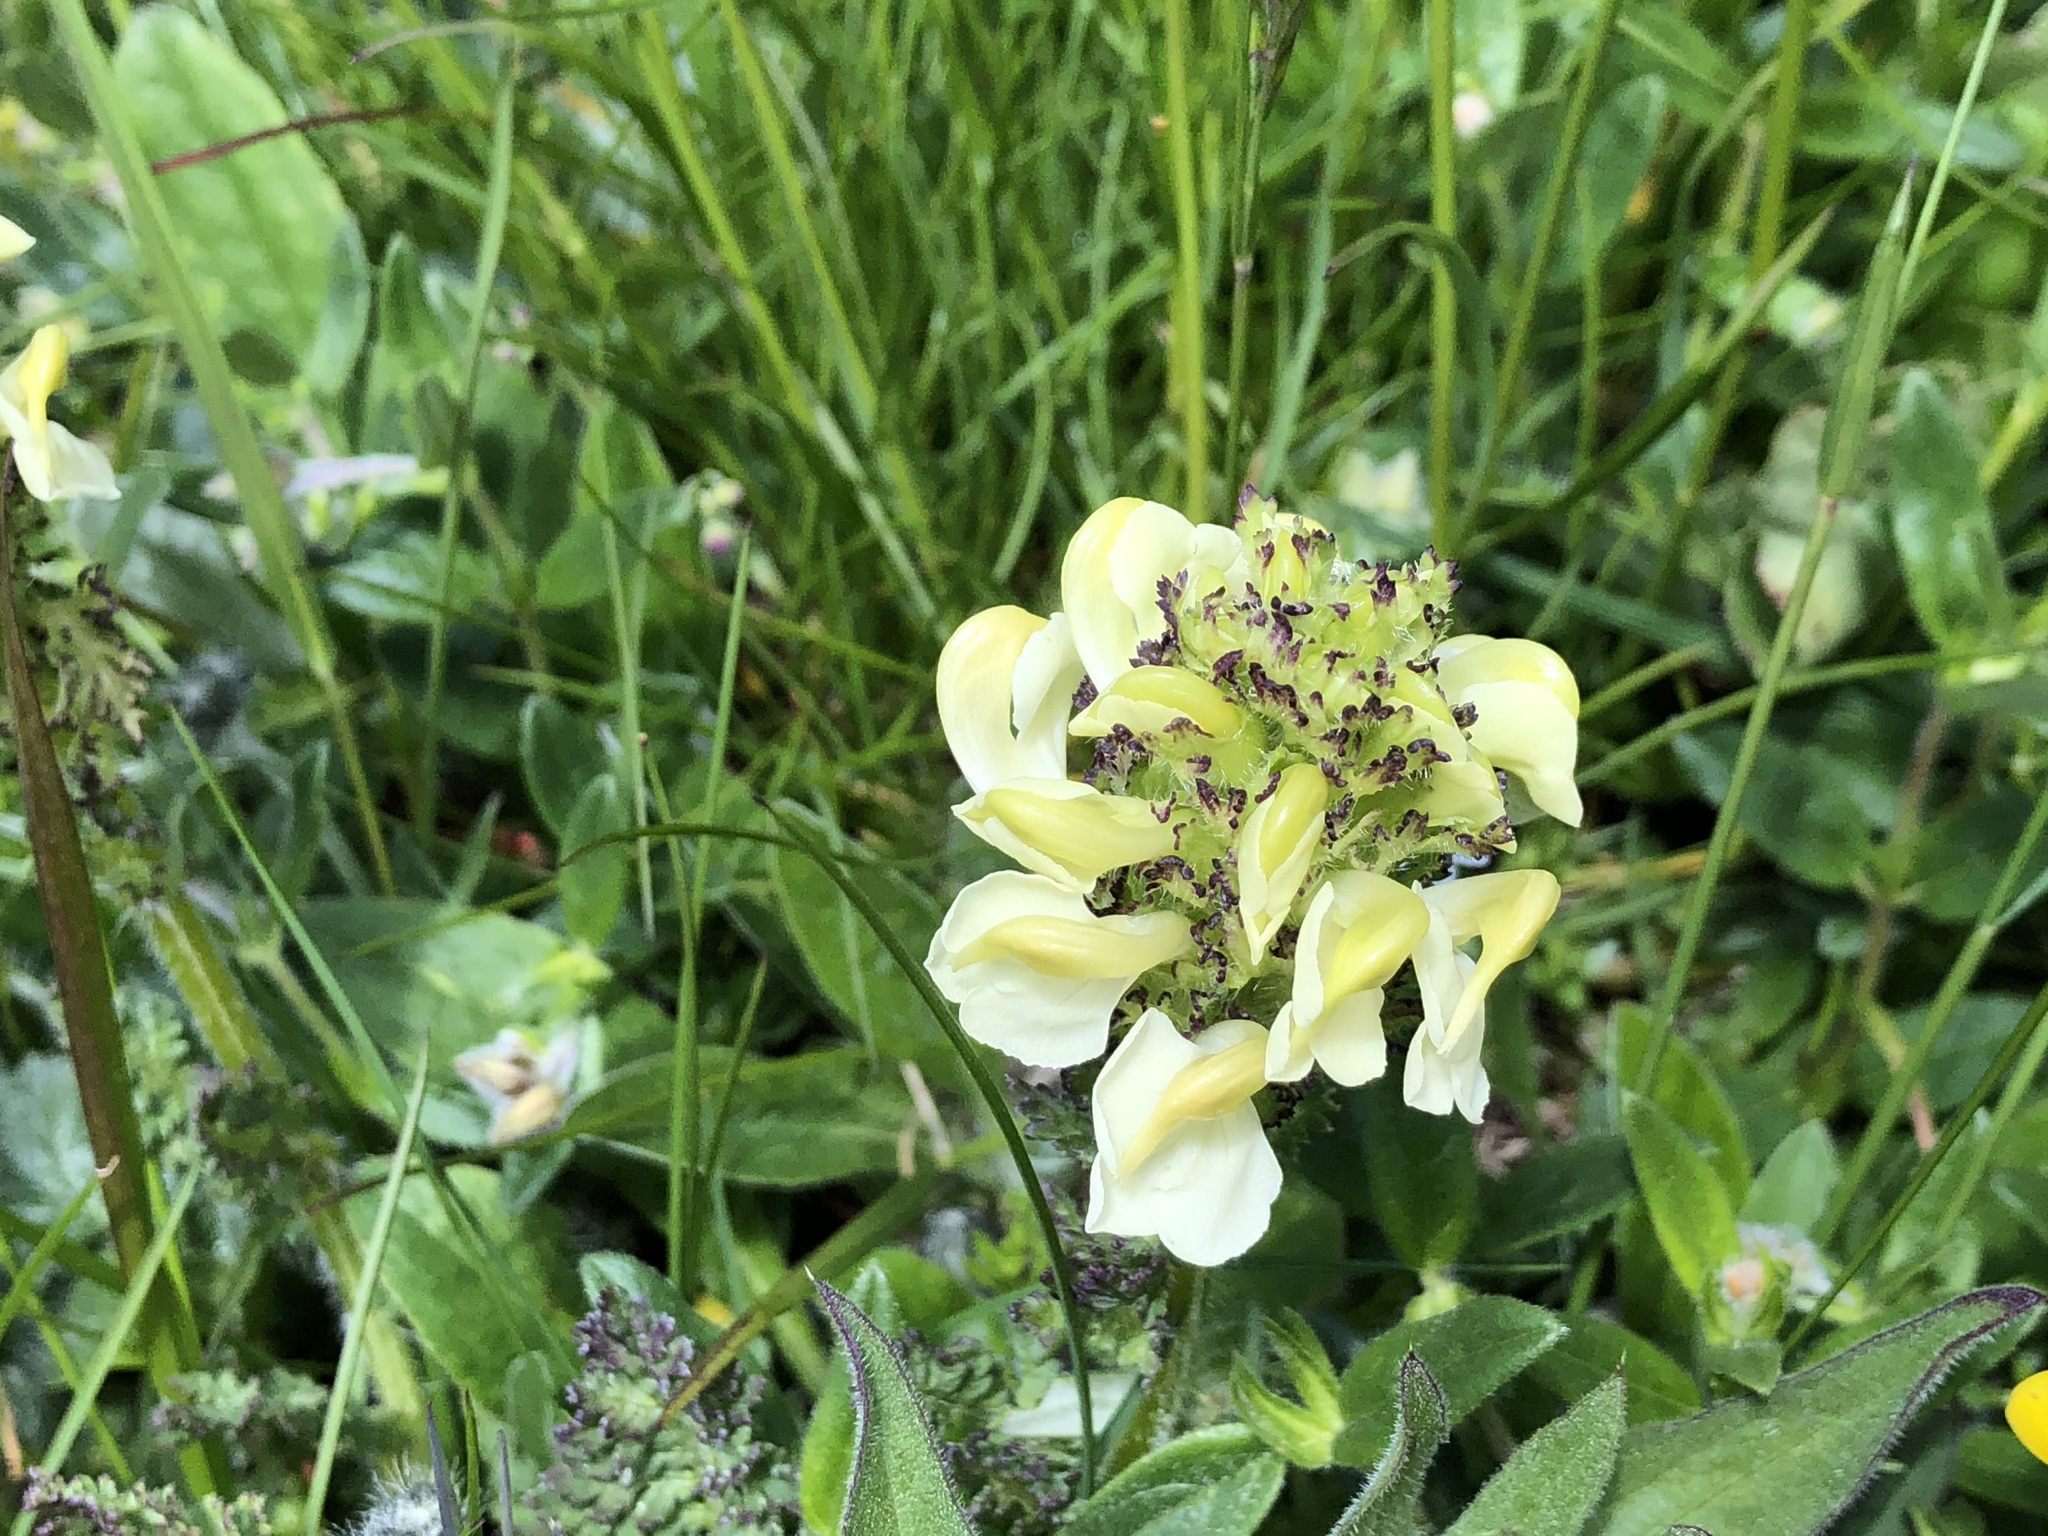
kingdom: Plantae
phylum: Tracheophyta
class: Magnoliopsida
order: Lamiales
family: Orobanchaceae
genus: Pedicularis
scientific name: Pedicularis tuberosa
